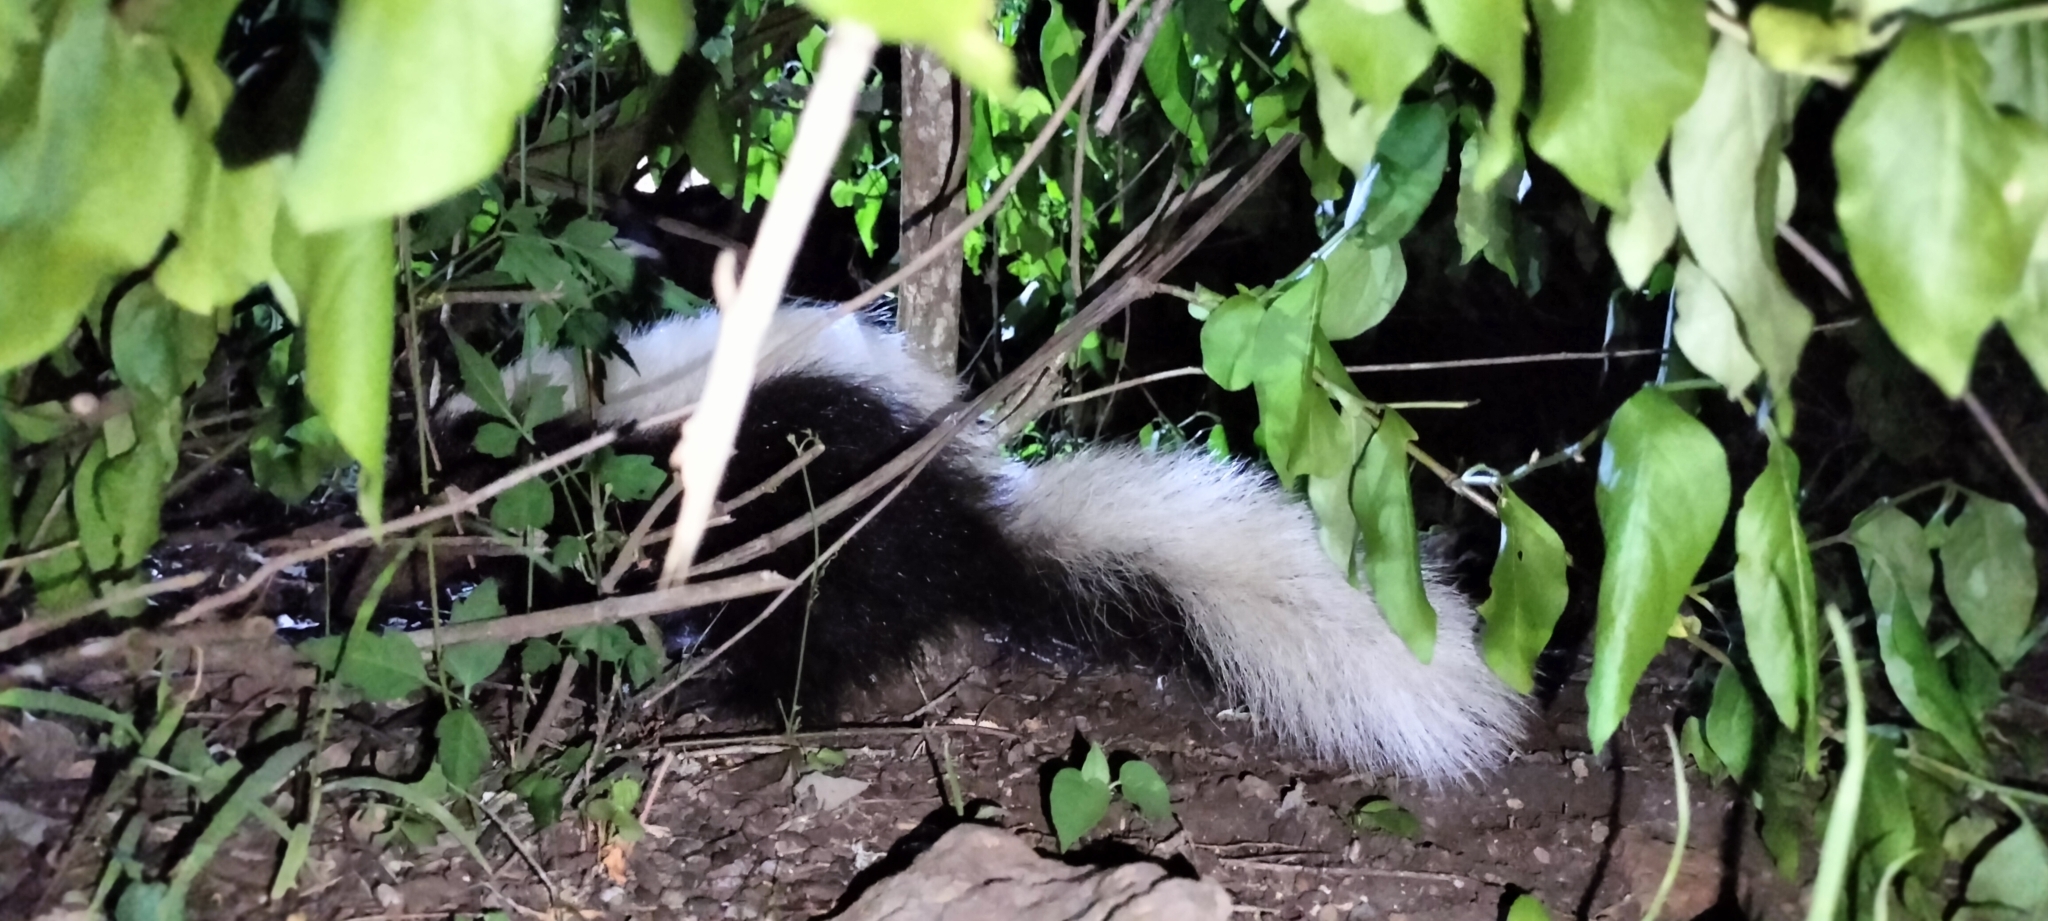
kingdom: Animalia
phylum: Chordata
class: Mammalia
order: Carnivora
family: Mephitidae
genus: Conepatus
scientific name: Conepatus leuconotus
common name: Eastern hog-nosed skunk
